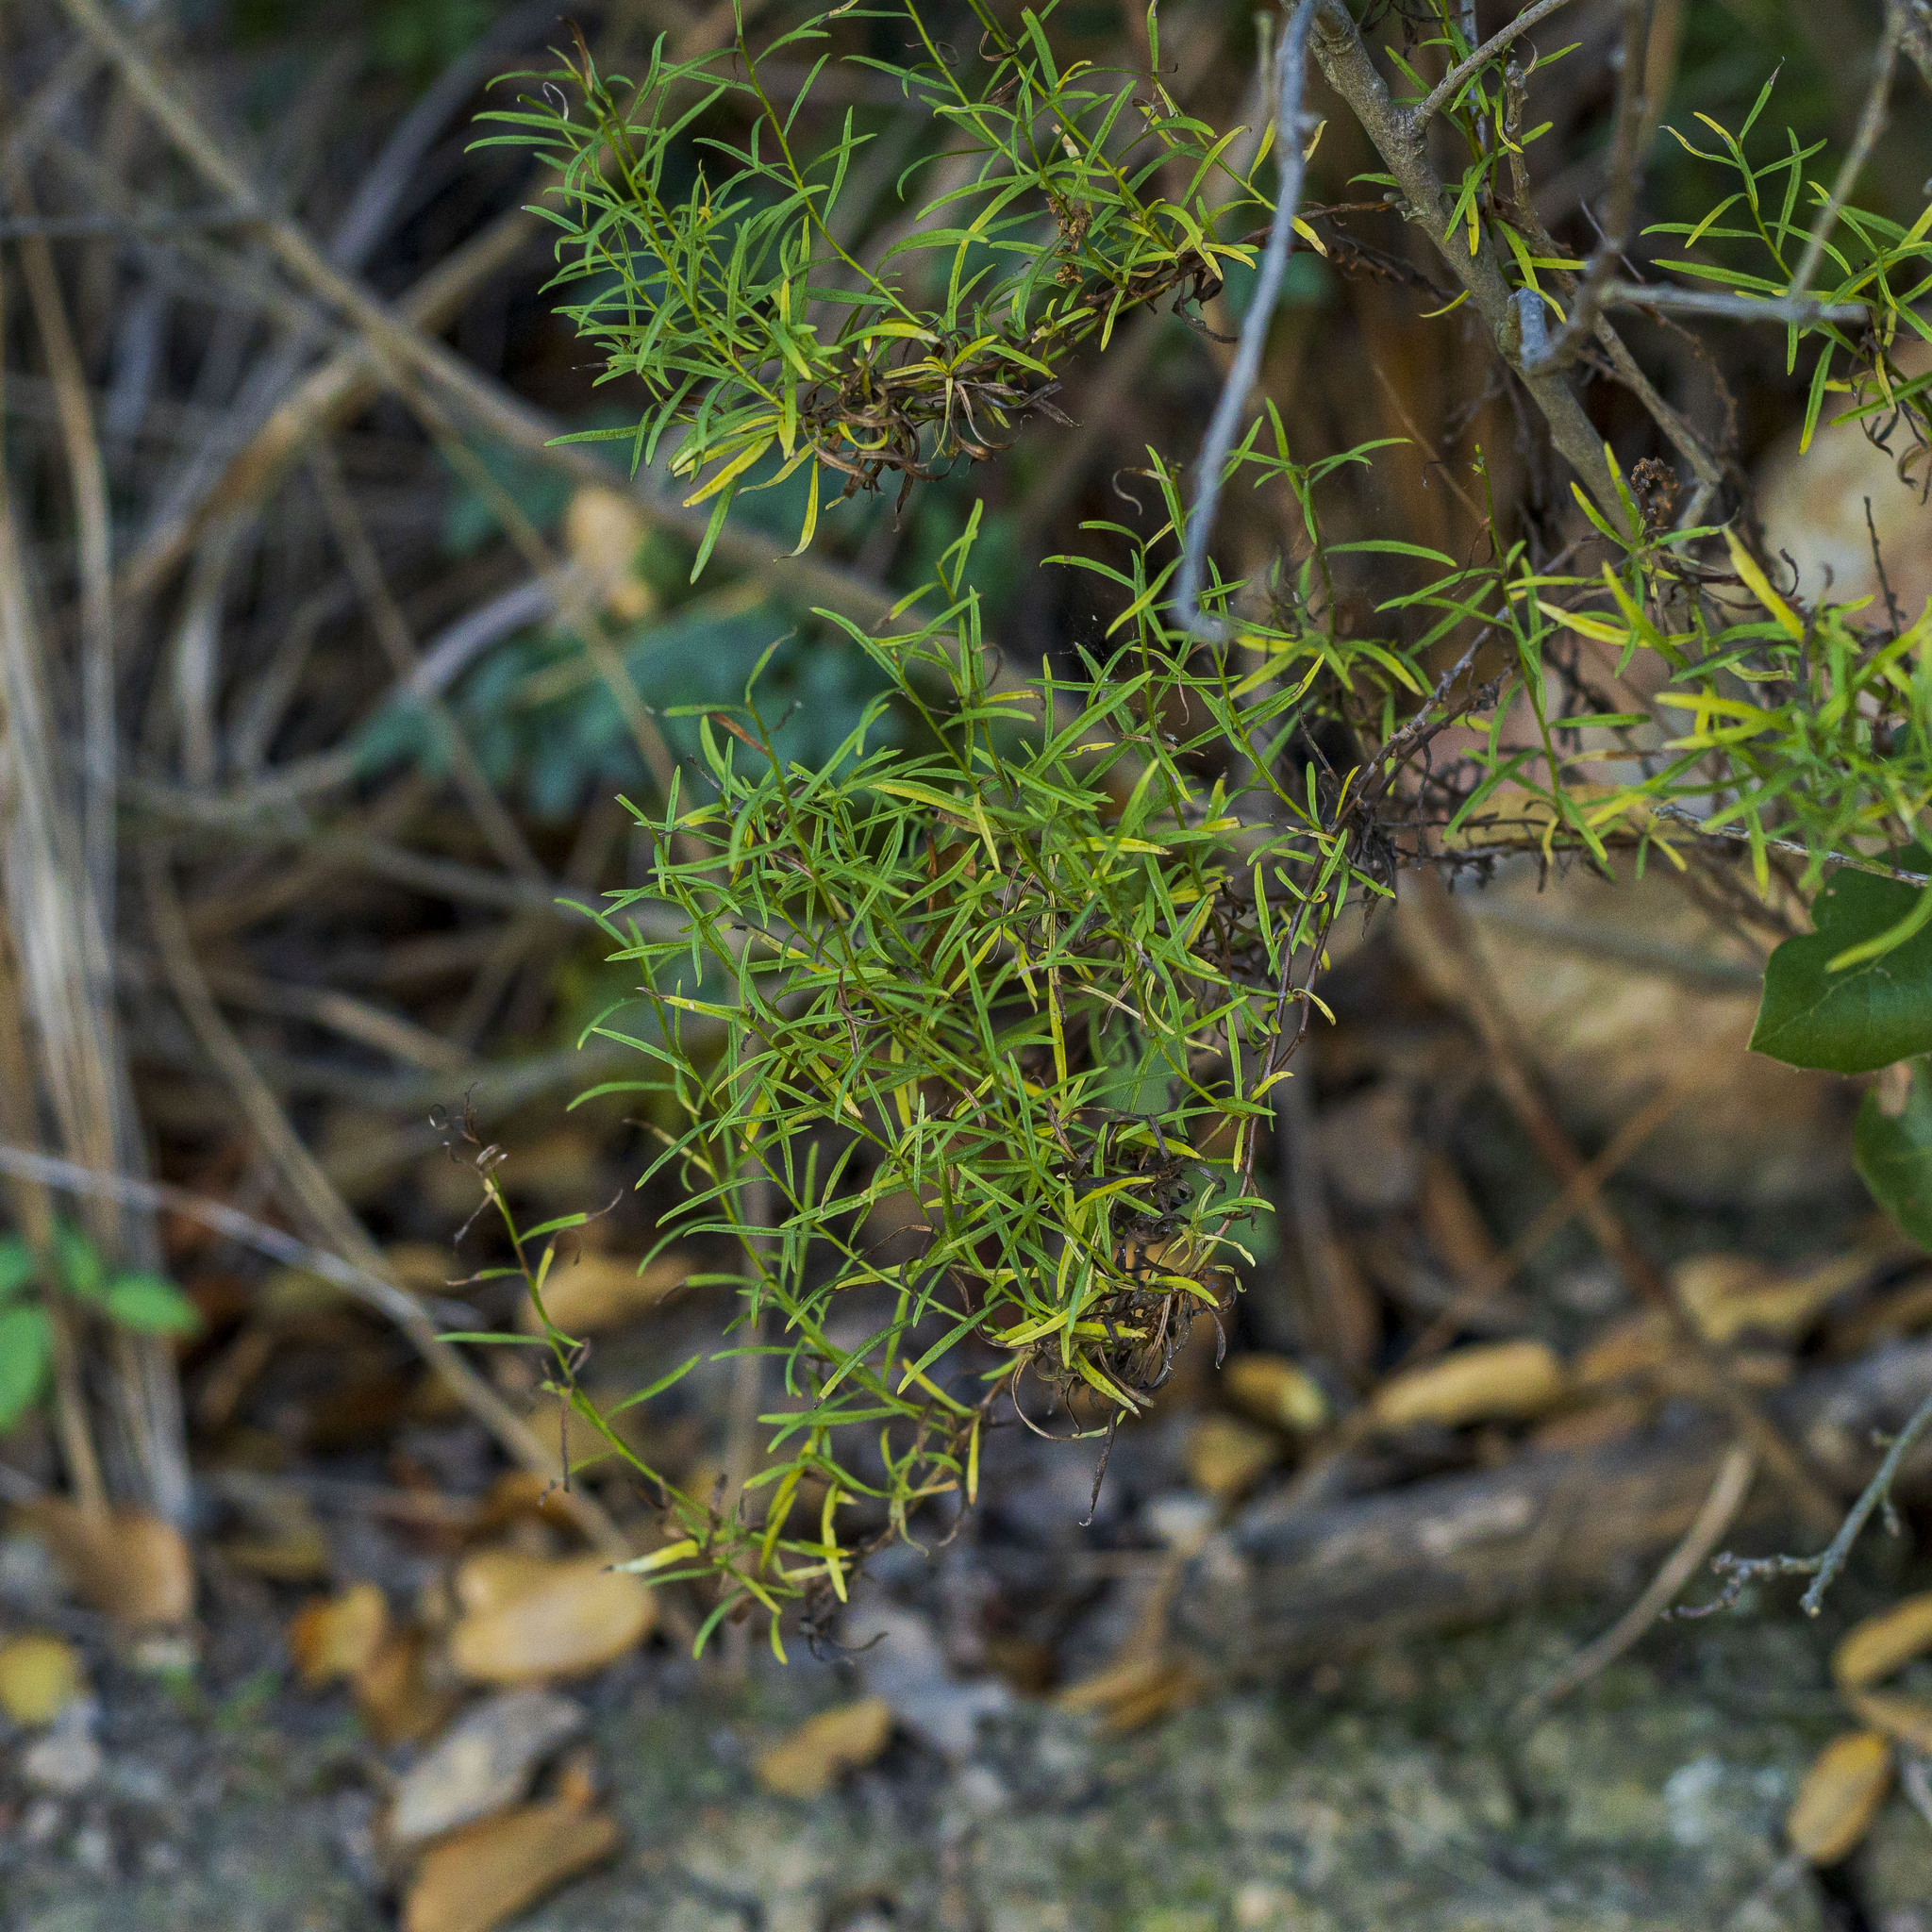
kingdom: Plantae
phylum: Tracheophyta
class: Magnoliopsida
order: Asterales
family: Asteraceae
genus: Baccharis
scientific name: Baccharis vanessae
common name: Encinitas baccharis
